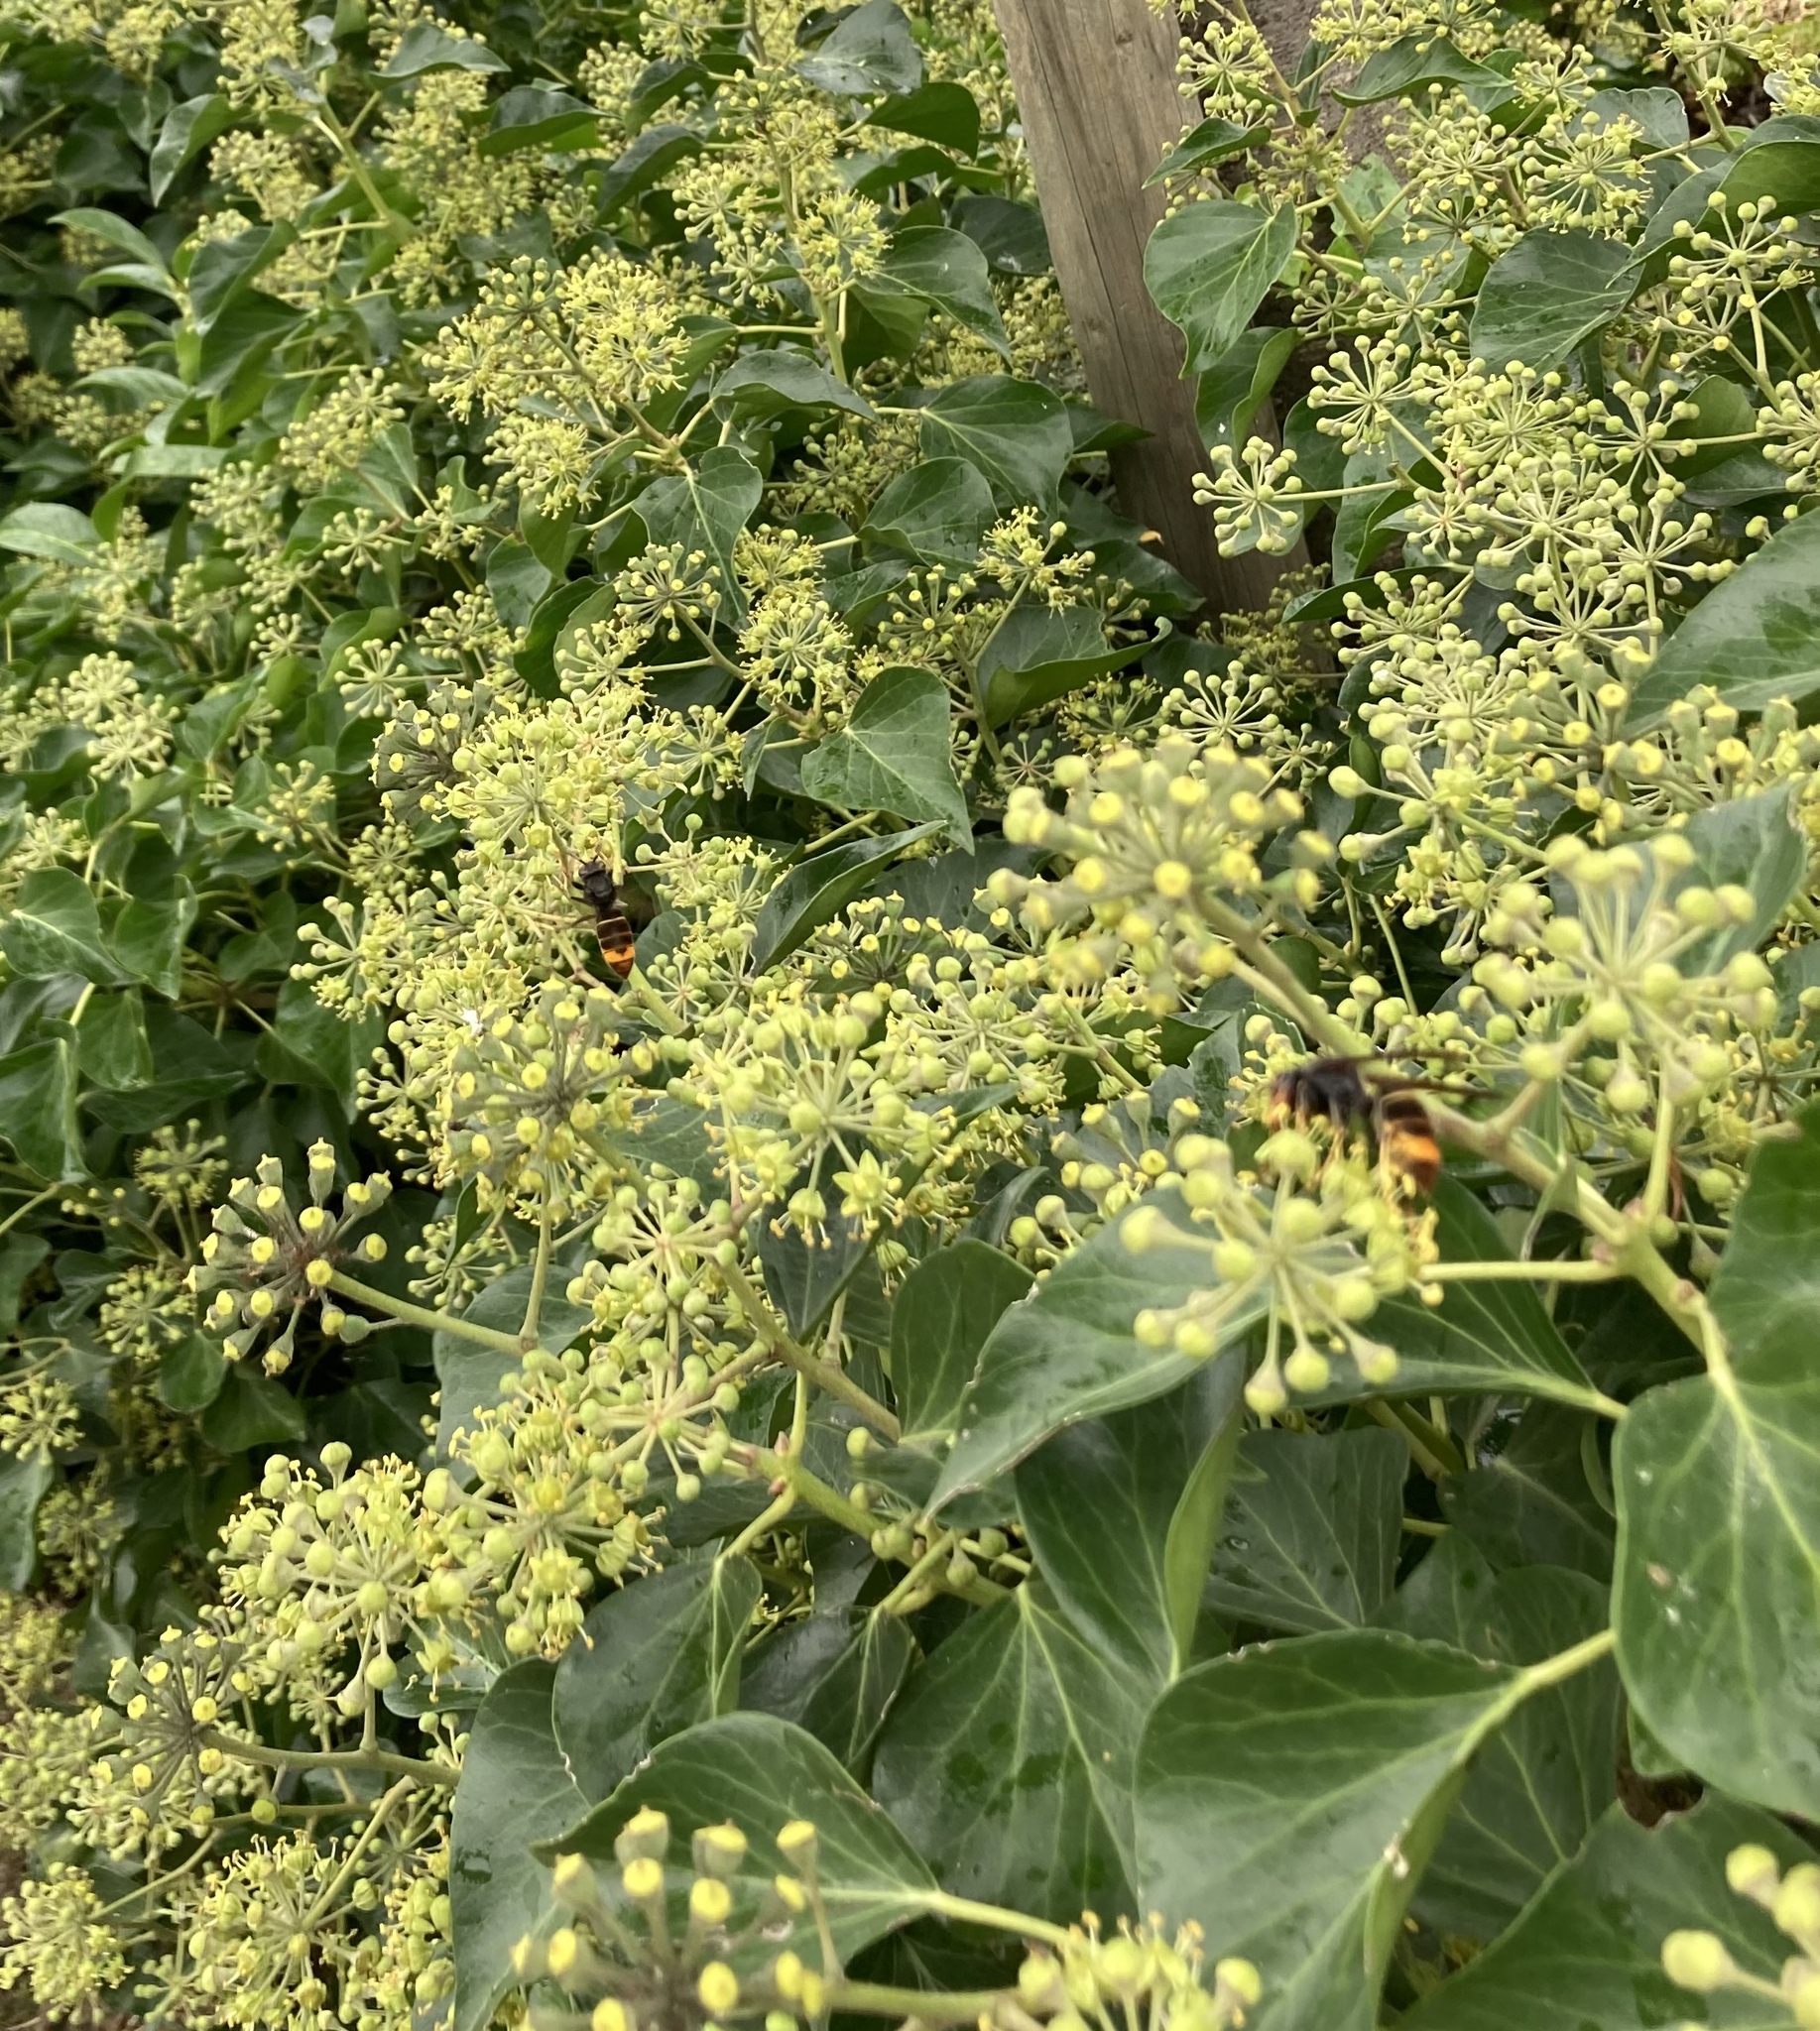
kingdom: Animalia
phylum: Arthropoda
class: Insecta
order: Hymenoptera
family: Vespidae
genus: Vespa
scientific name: Vespa velutina
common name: Asian hornet
